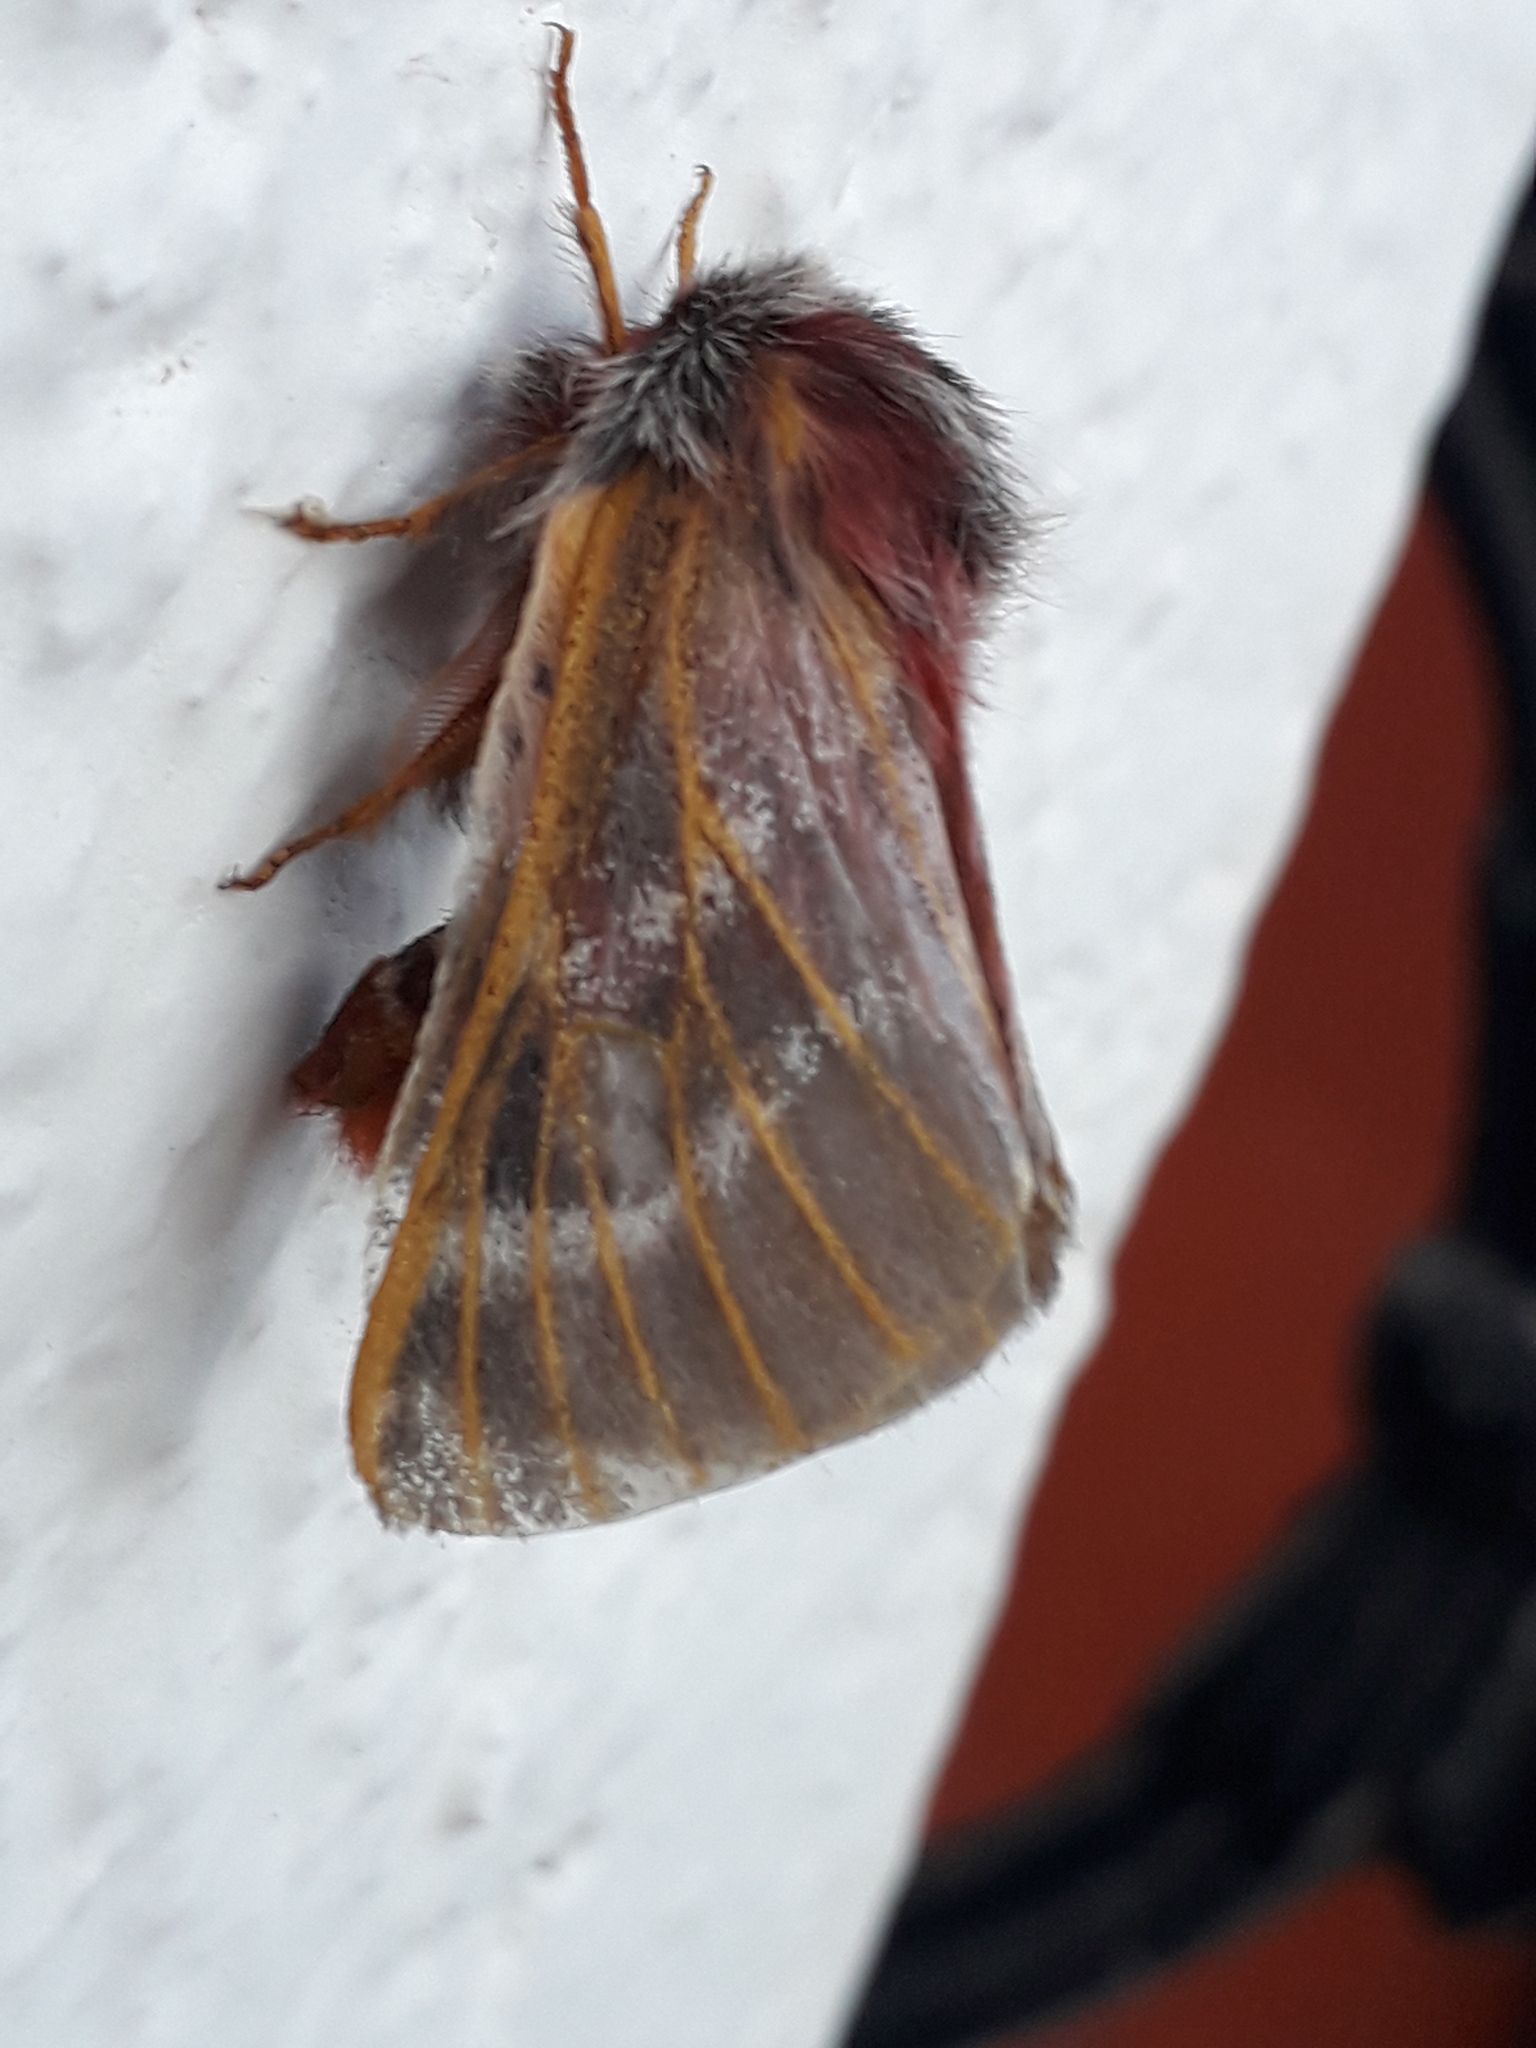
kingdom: Animalia
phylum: Arthropoda
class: Insecta
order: Lepidoptera
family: Saturniidae
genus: Hemileuca
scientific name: Hemileuca rubridorsa
